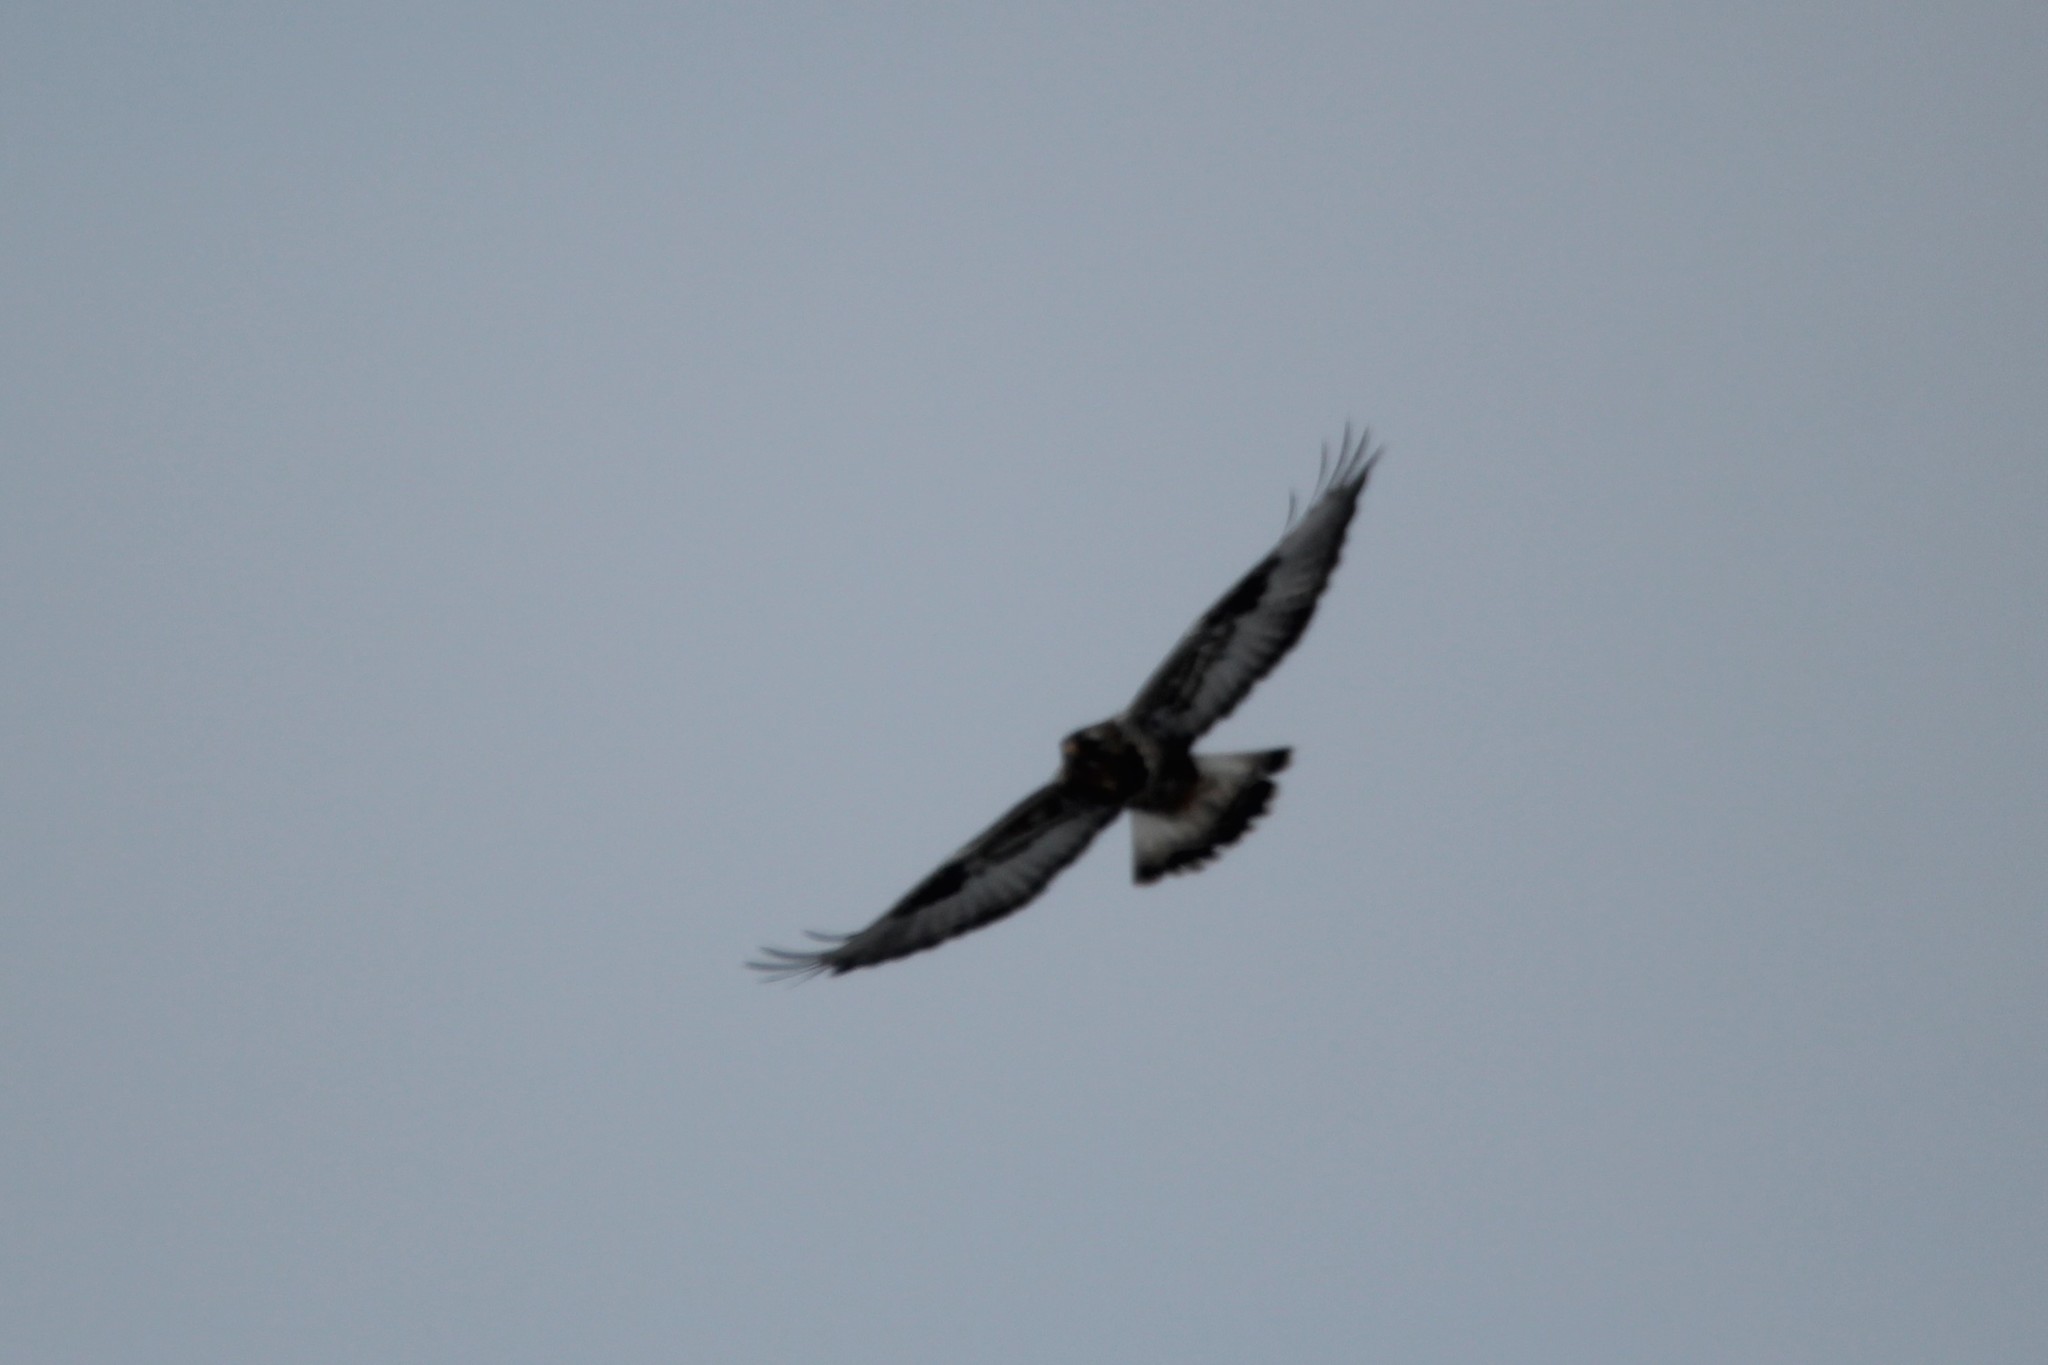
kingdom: Animalia
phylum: Chordata
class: Aves
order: Accipitriformes
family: Accipitridae
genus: Buteo
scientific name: Buteo lagopus
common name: Rough-legged buzzard
